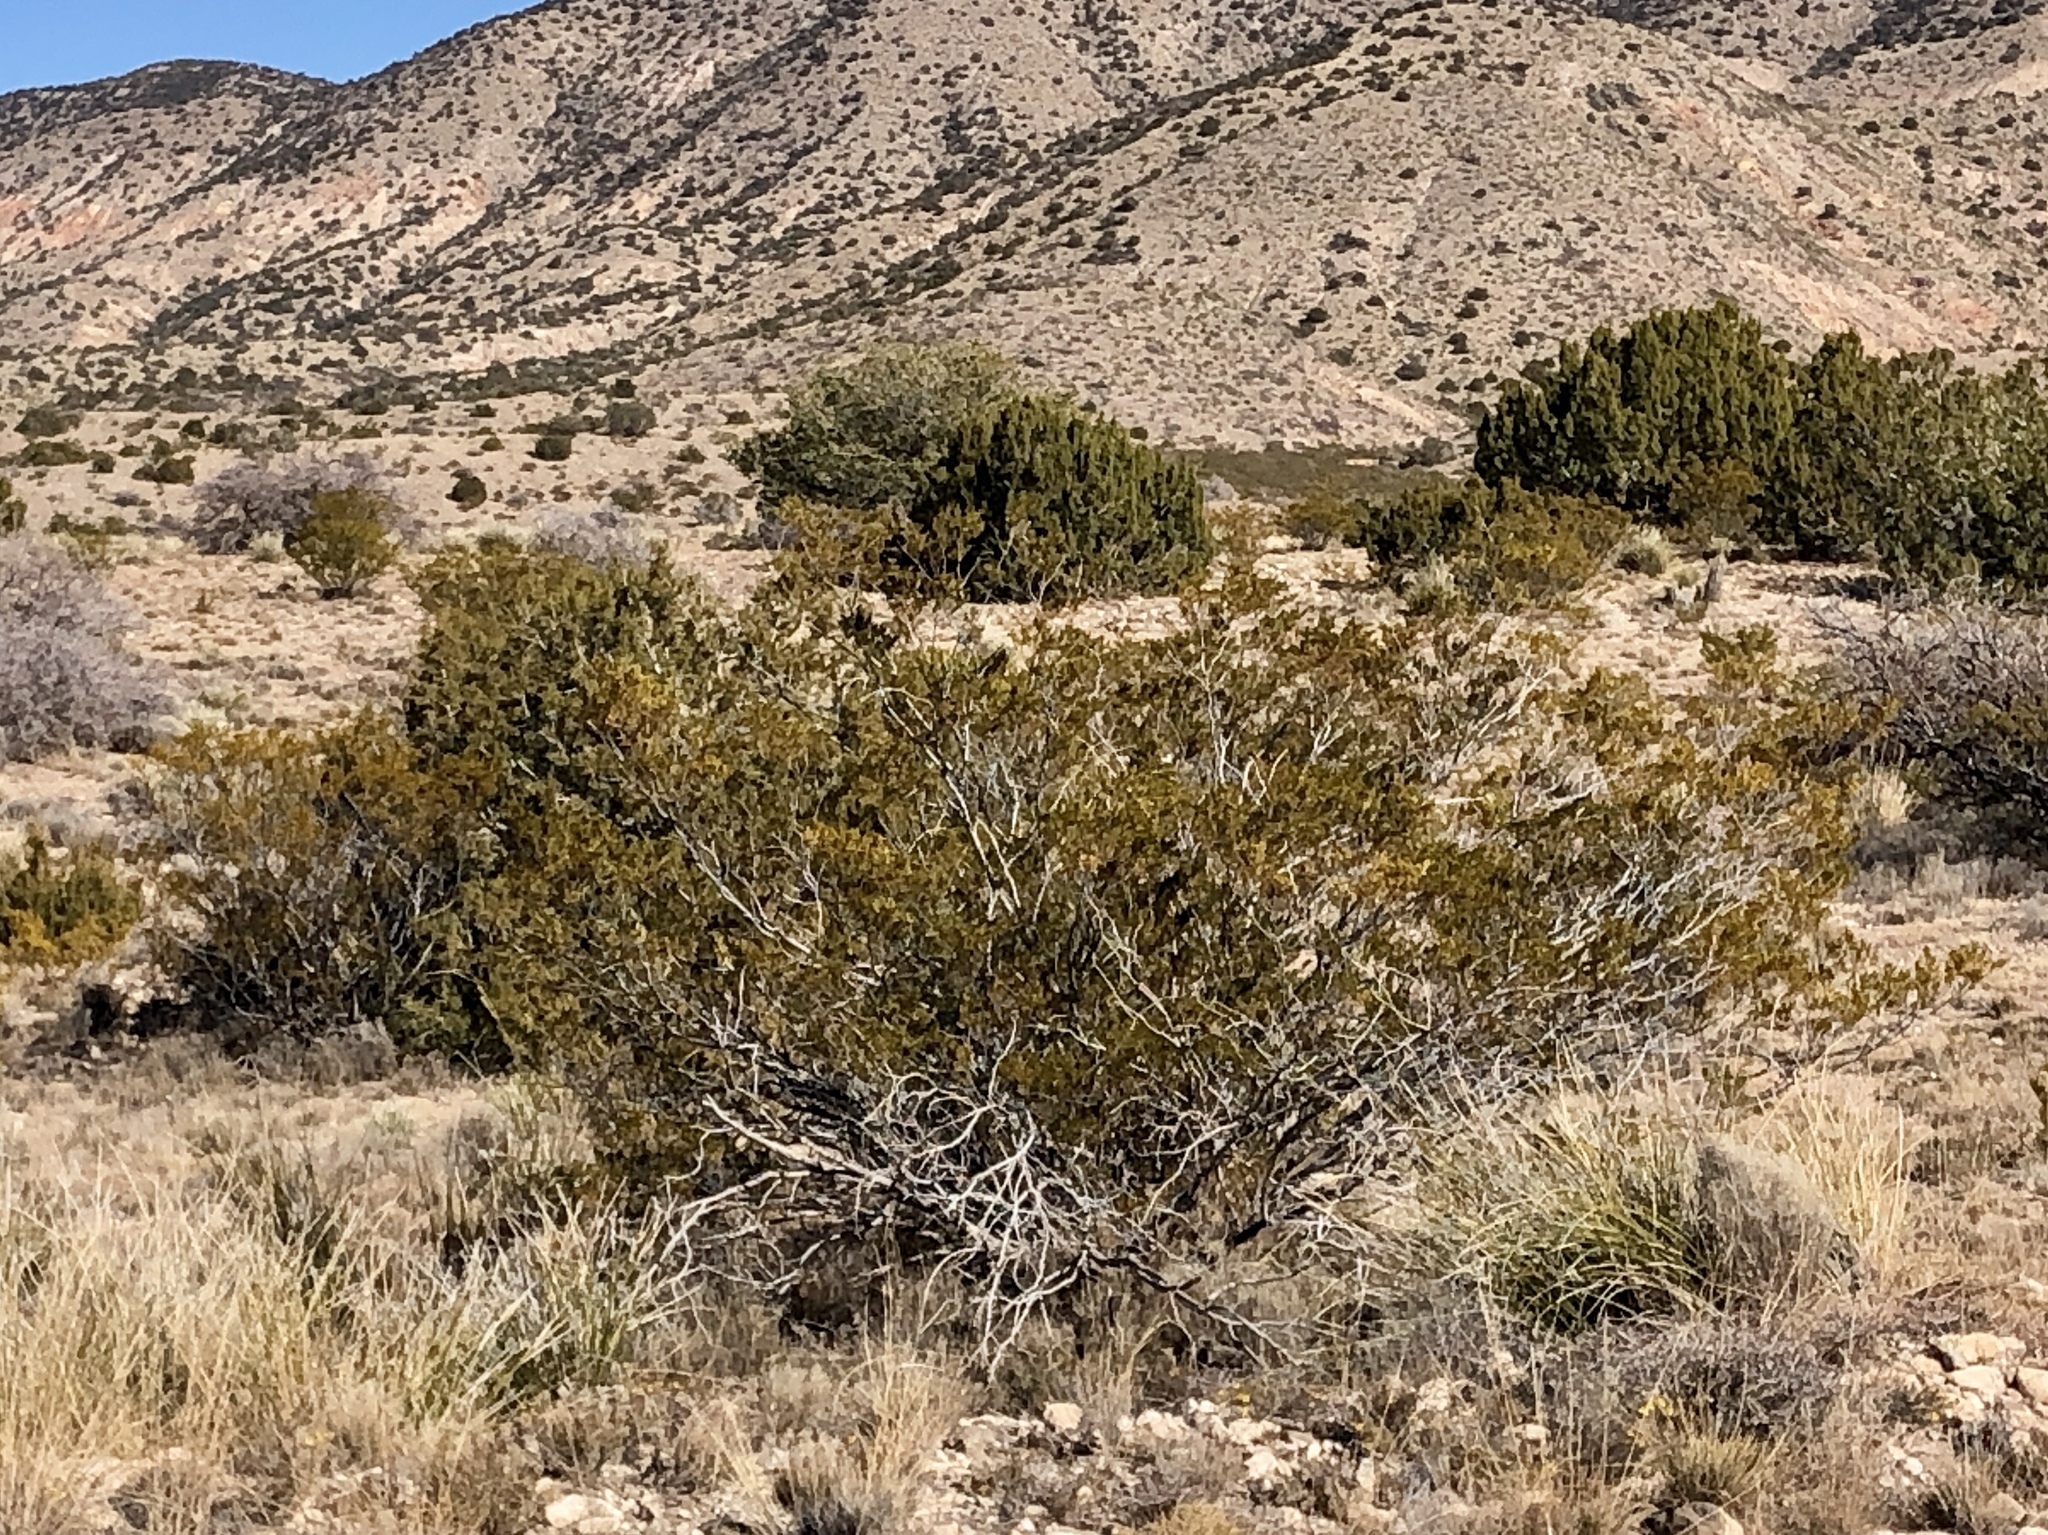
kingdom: Plantae
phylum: Tracheophyta
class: Magnoliopsida
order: Zygophyllales
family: Zygophyllaceae
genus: Larrea
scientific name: Larrea tridentata
